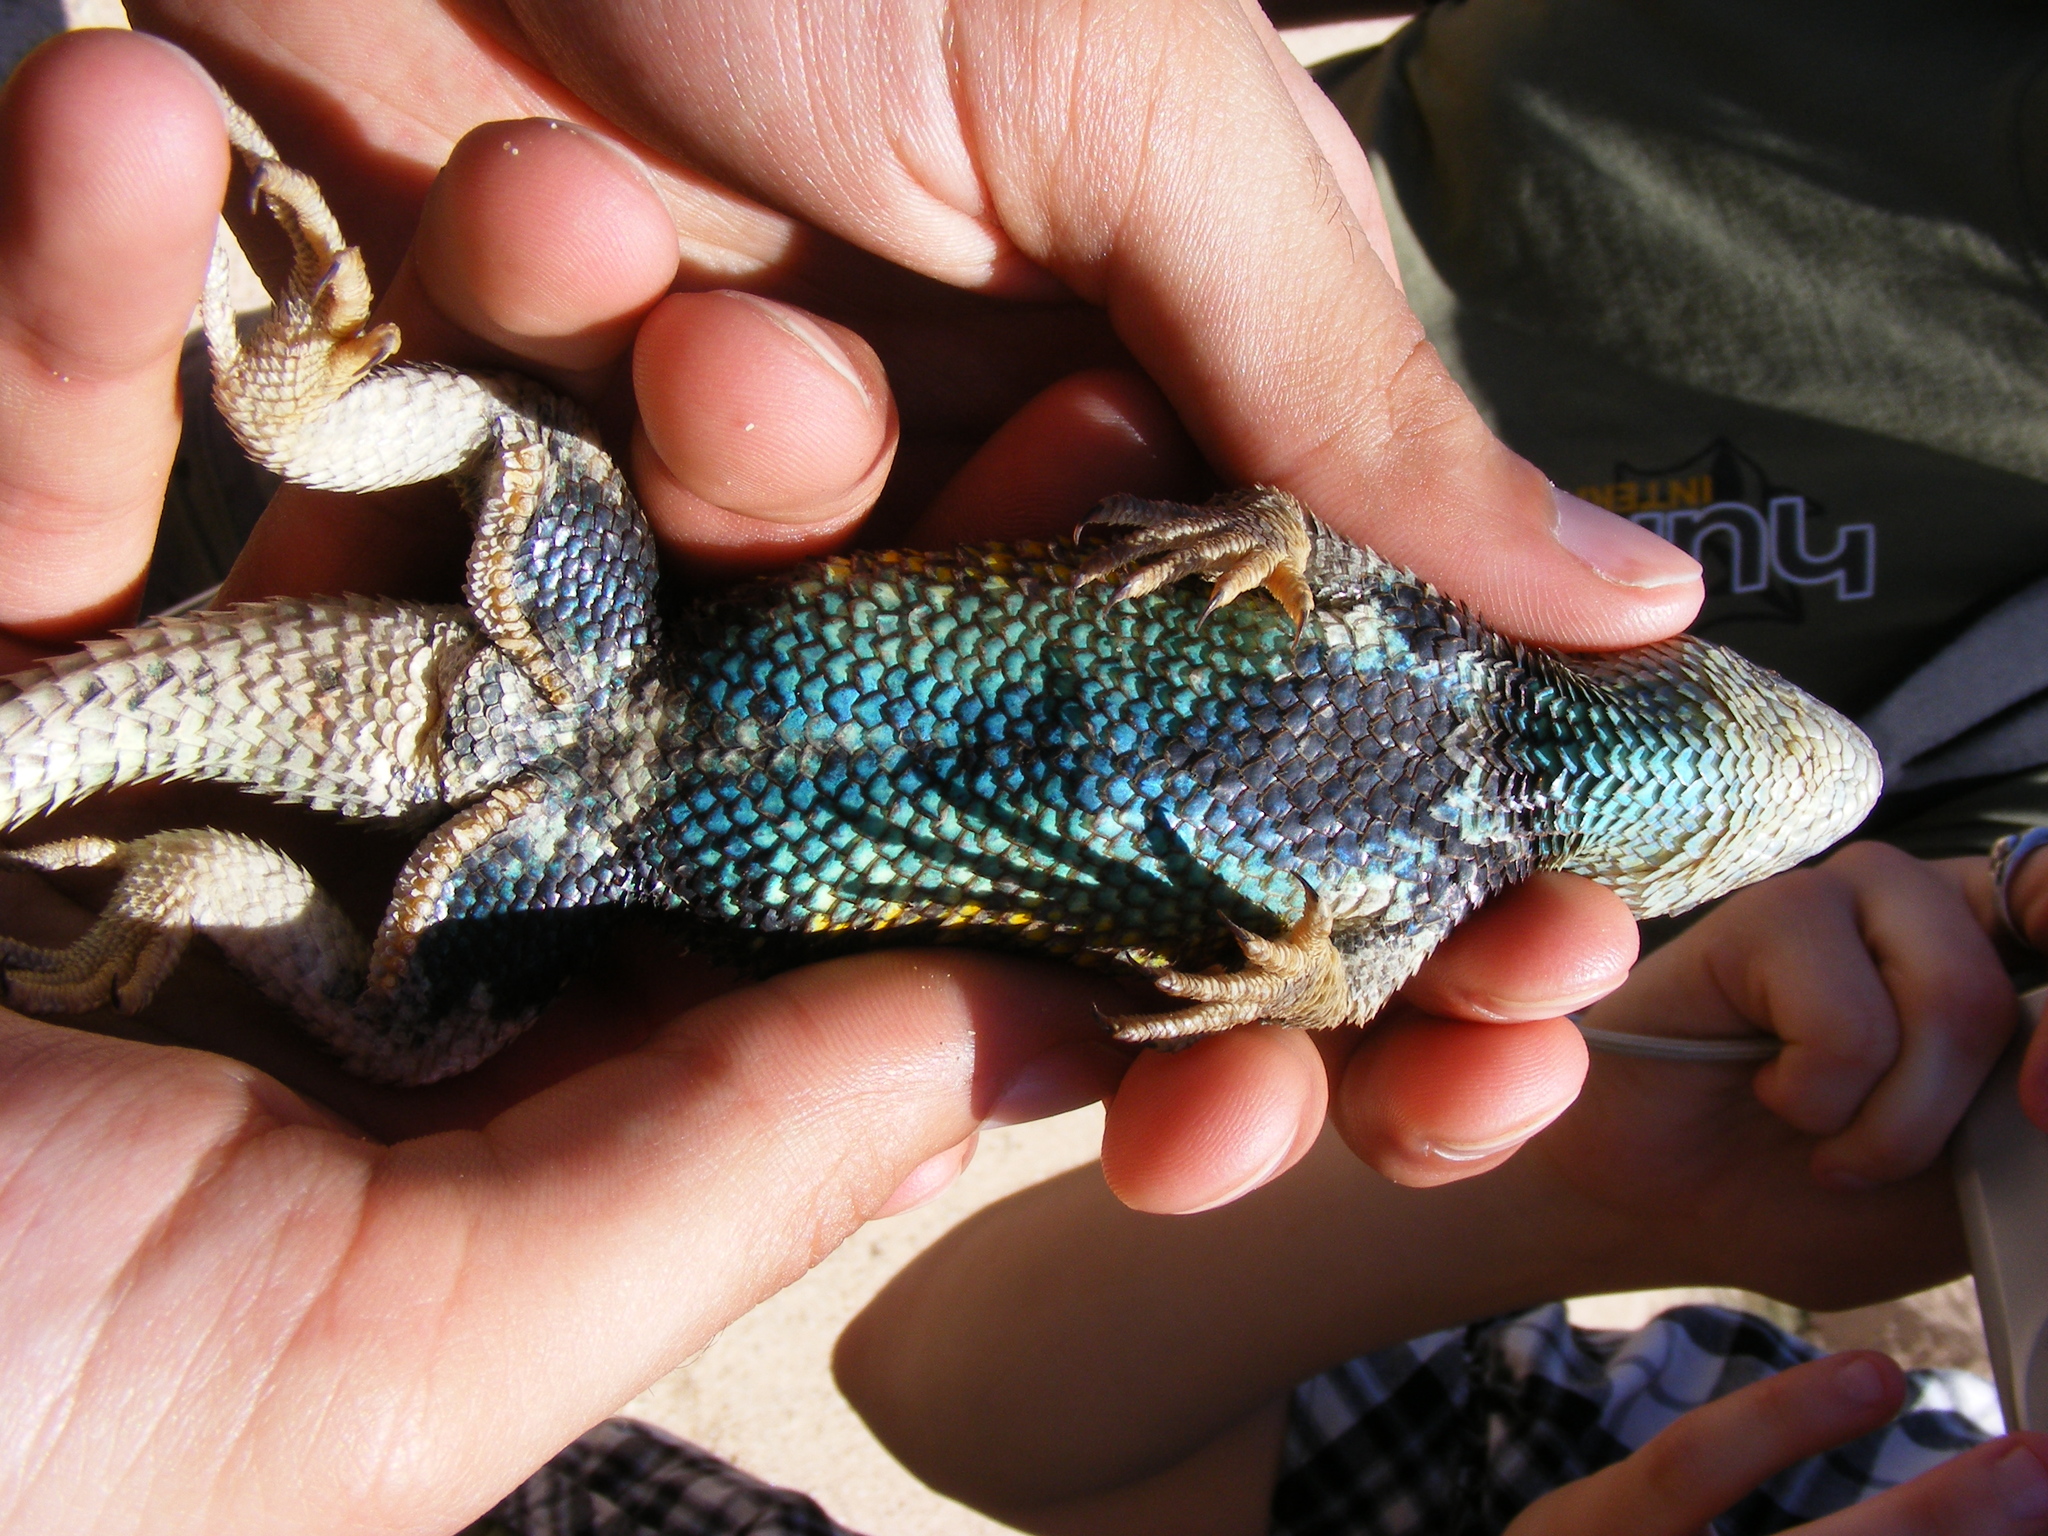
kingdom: Animalia
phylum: Chordata
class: Squamata
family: Phrynosomatidae
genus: Sceloporus
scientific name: Sceloporus uniformis
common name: Yellow-backed spiny lizard
